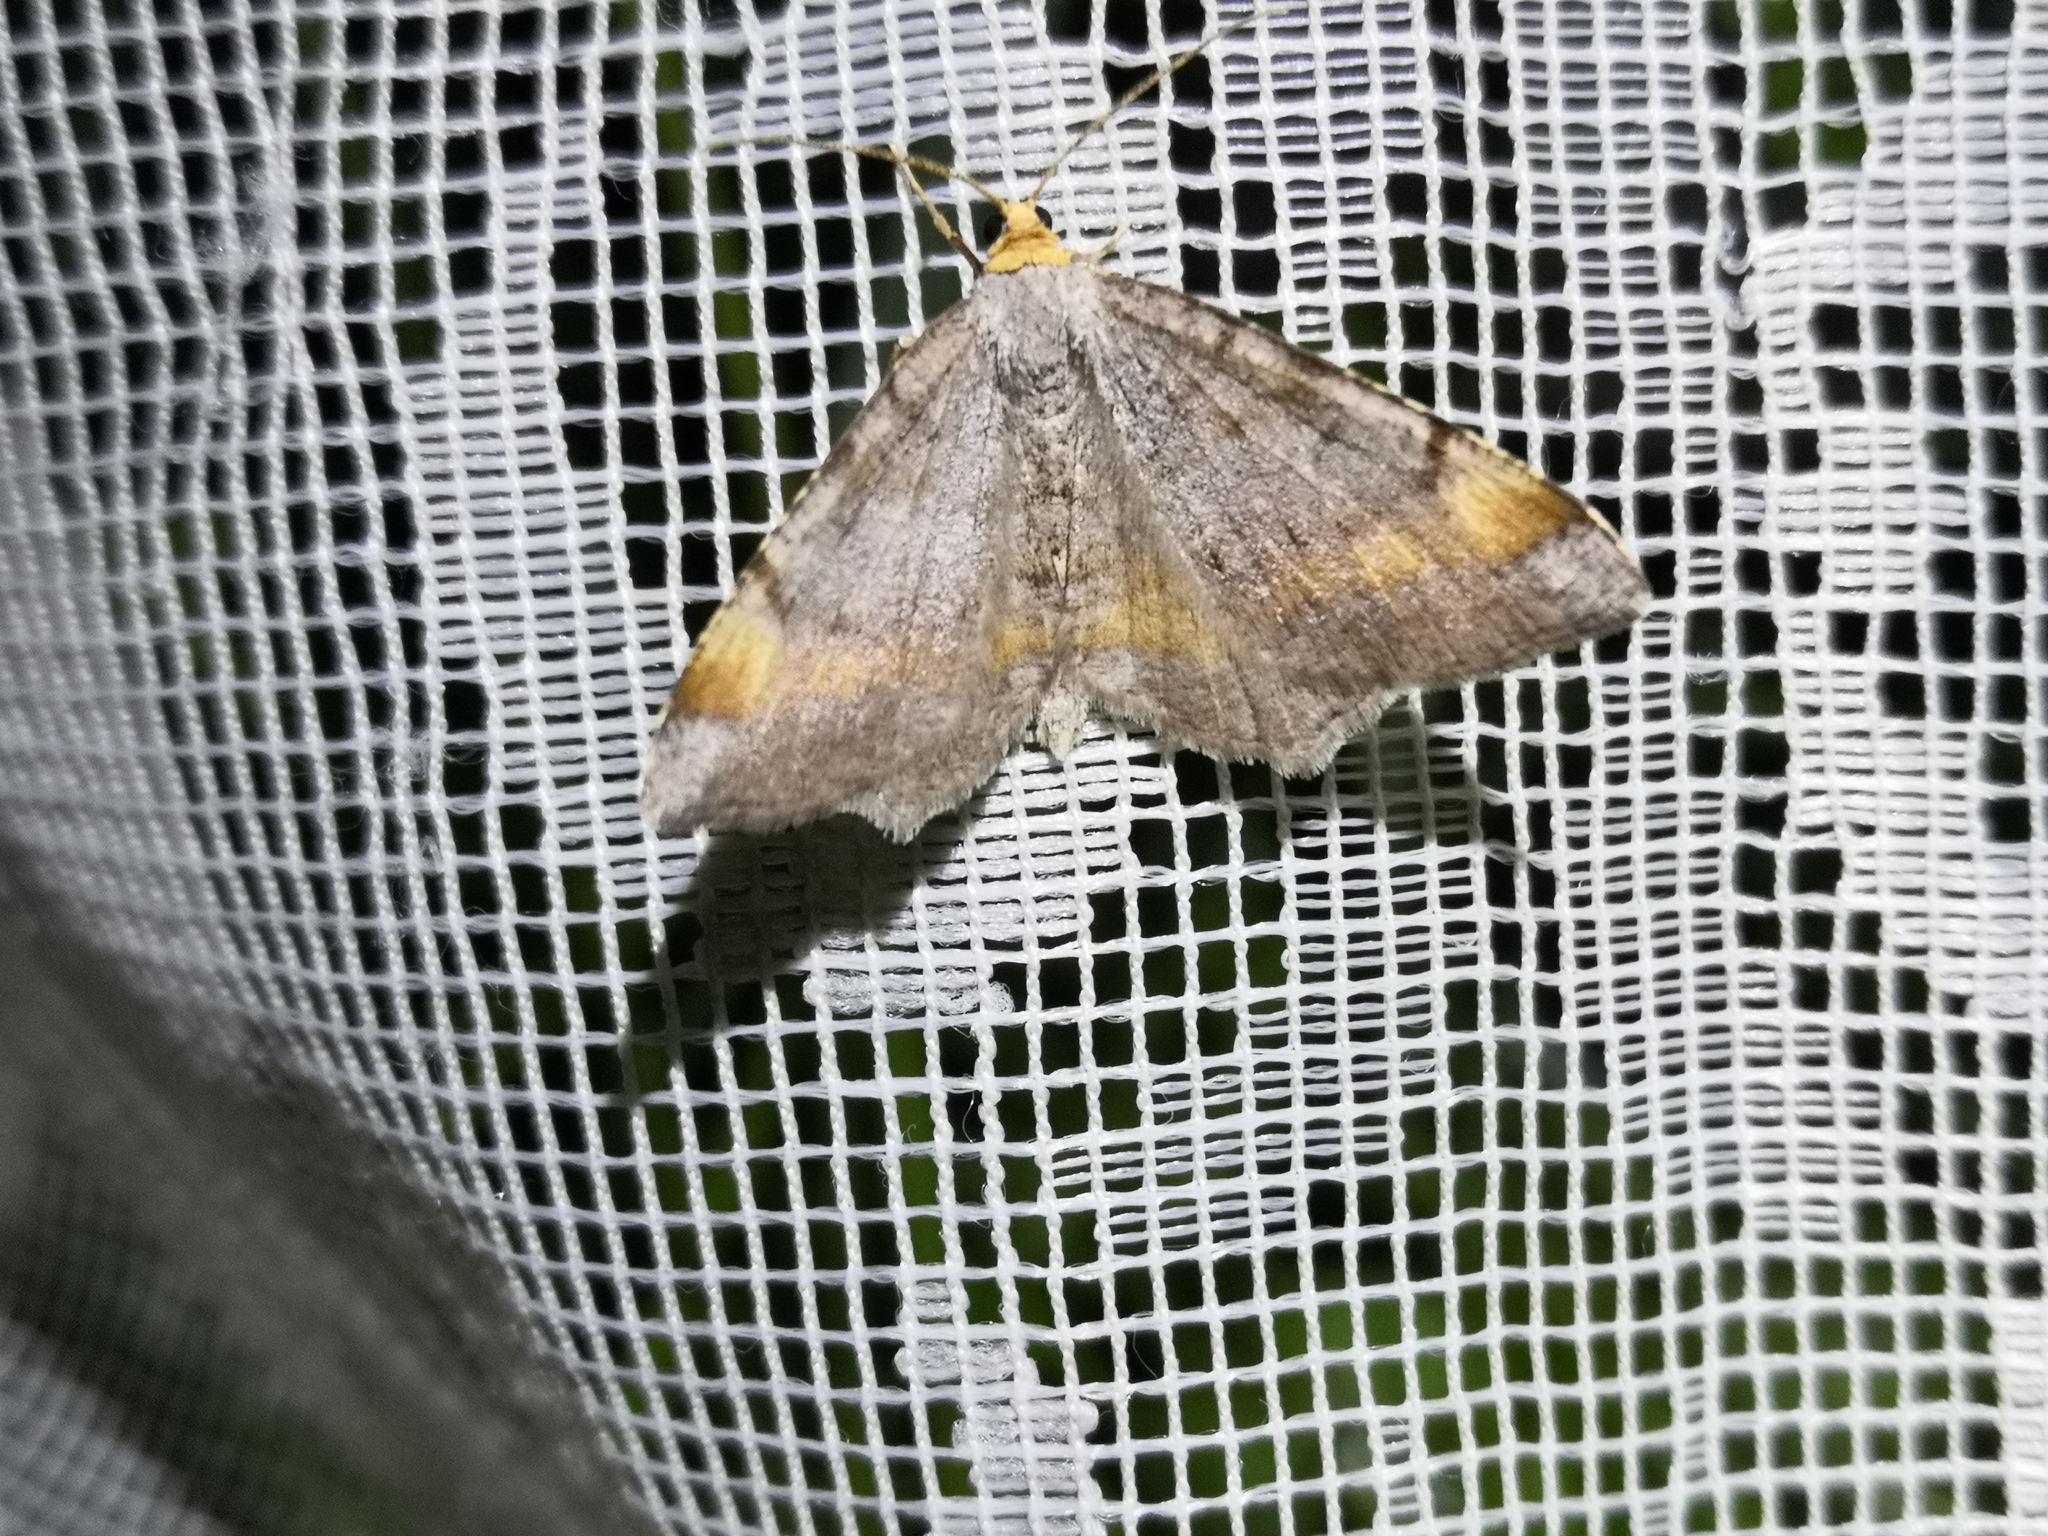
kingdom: Animalia
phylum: Arthropoda
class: Insecta
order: Lepidoptera
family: Geometridae
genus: Macaria
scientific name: Macaria liturata
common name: Tawny-barred angle
